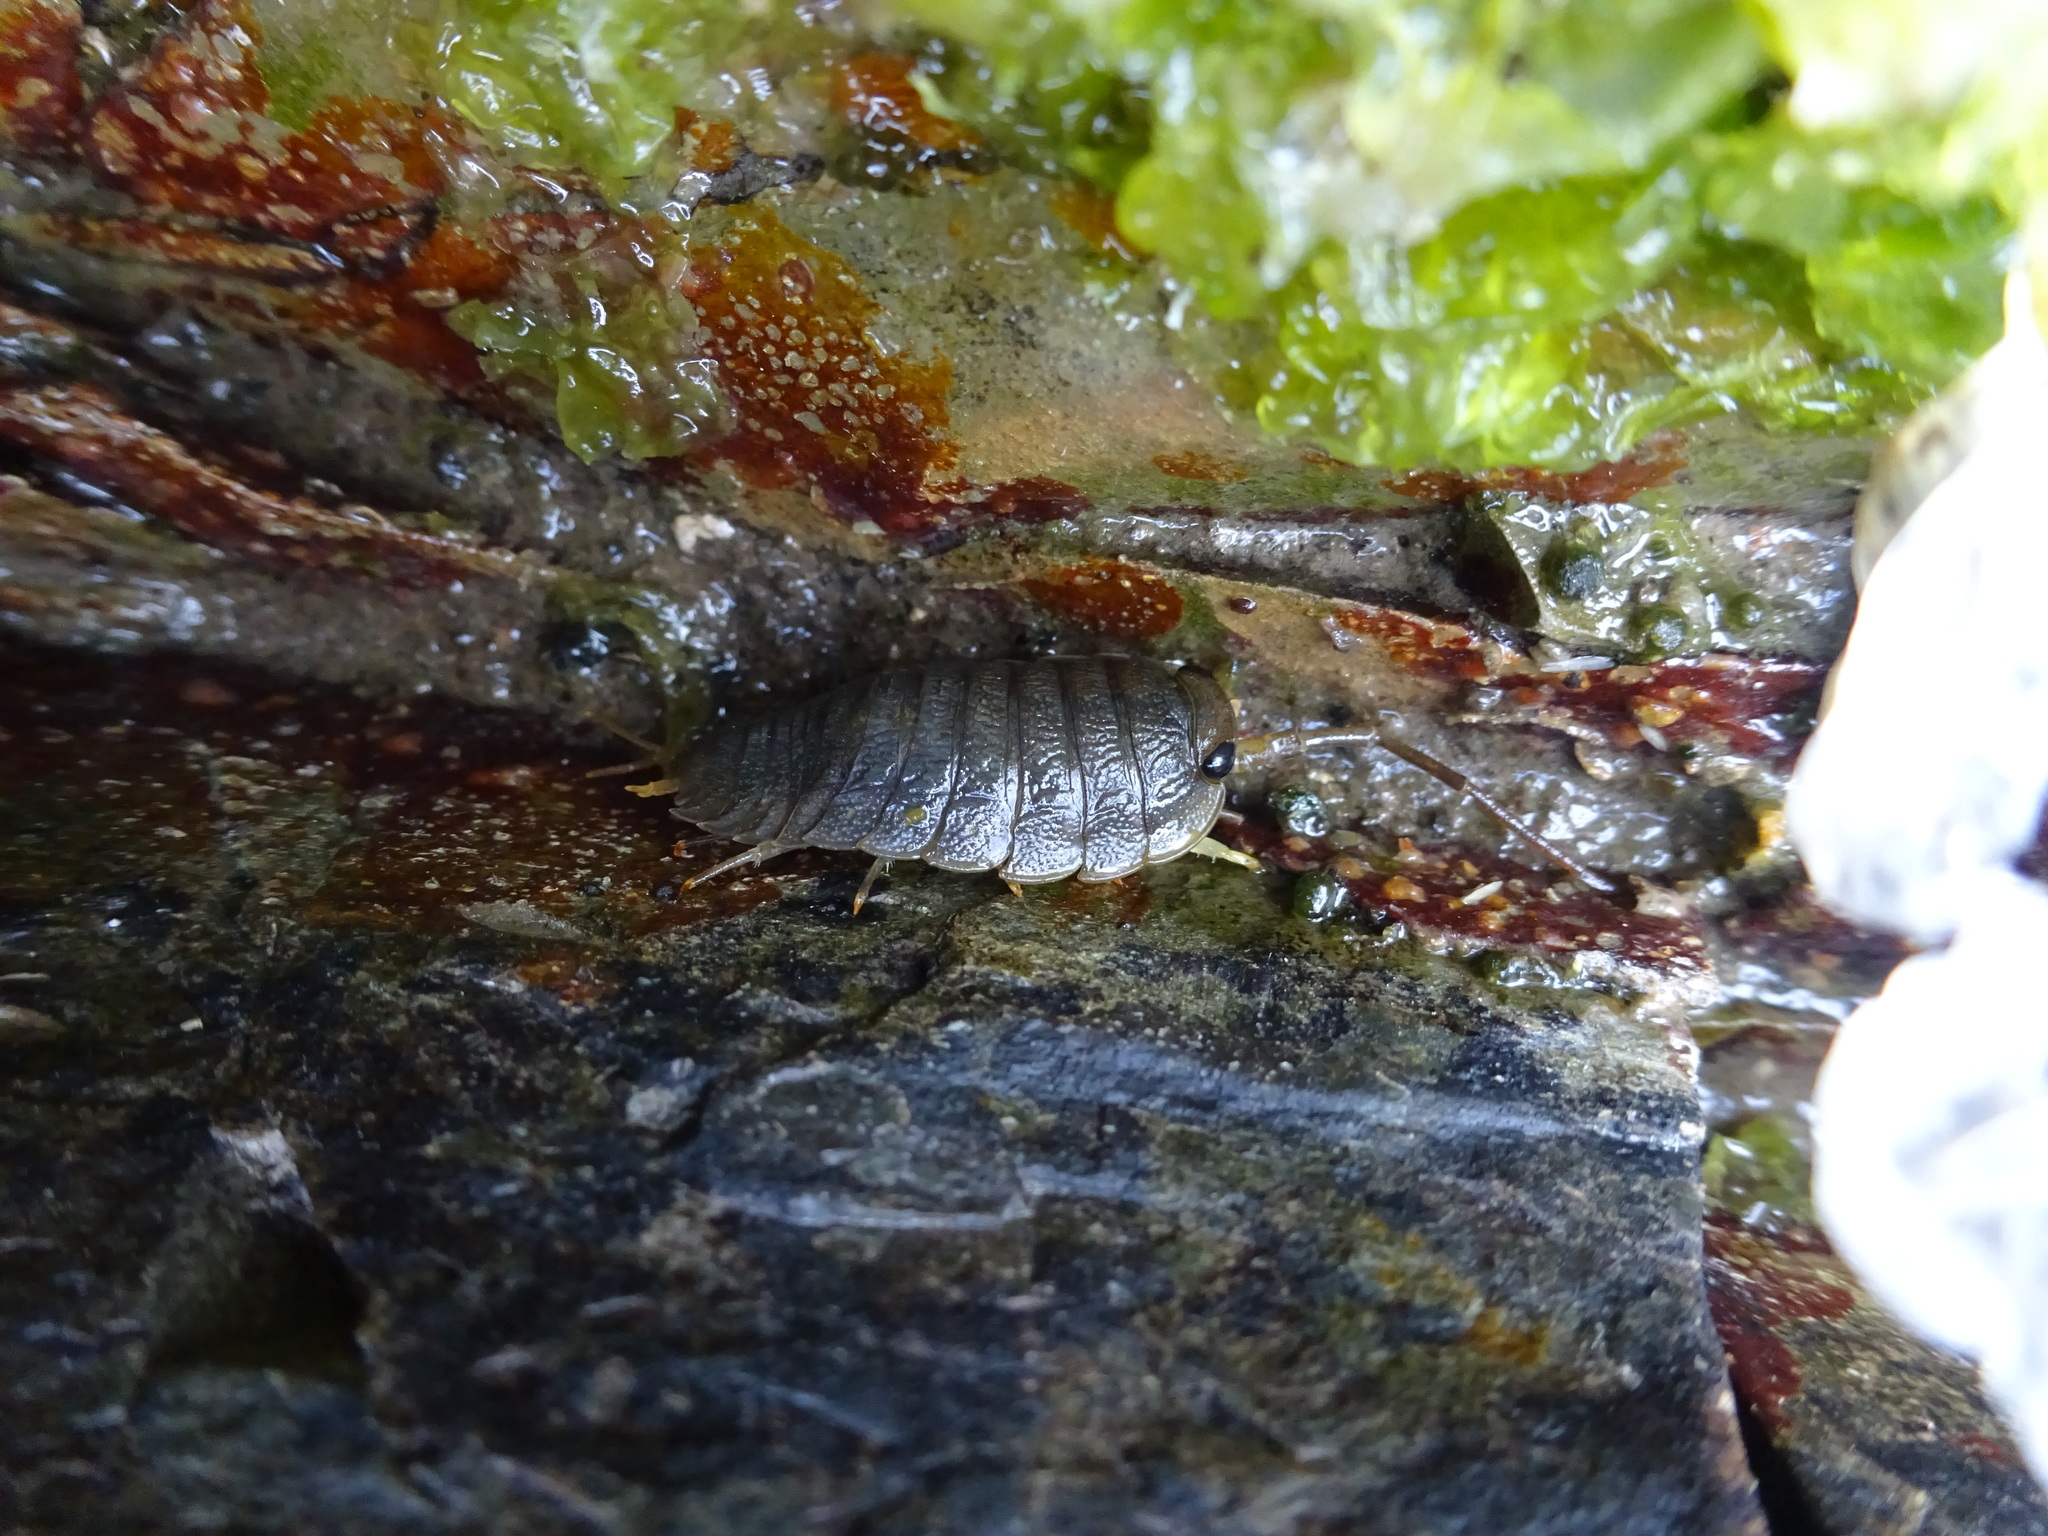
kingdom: Animalia
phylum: Arthropoda
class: Malacostraca
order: Isopoda
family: Ligiidae
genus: Ligia
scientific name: Ligia oceanica
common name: Sea slater
